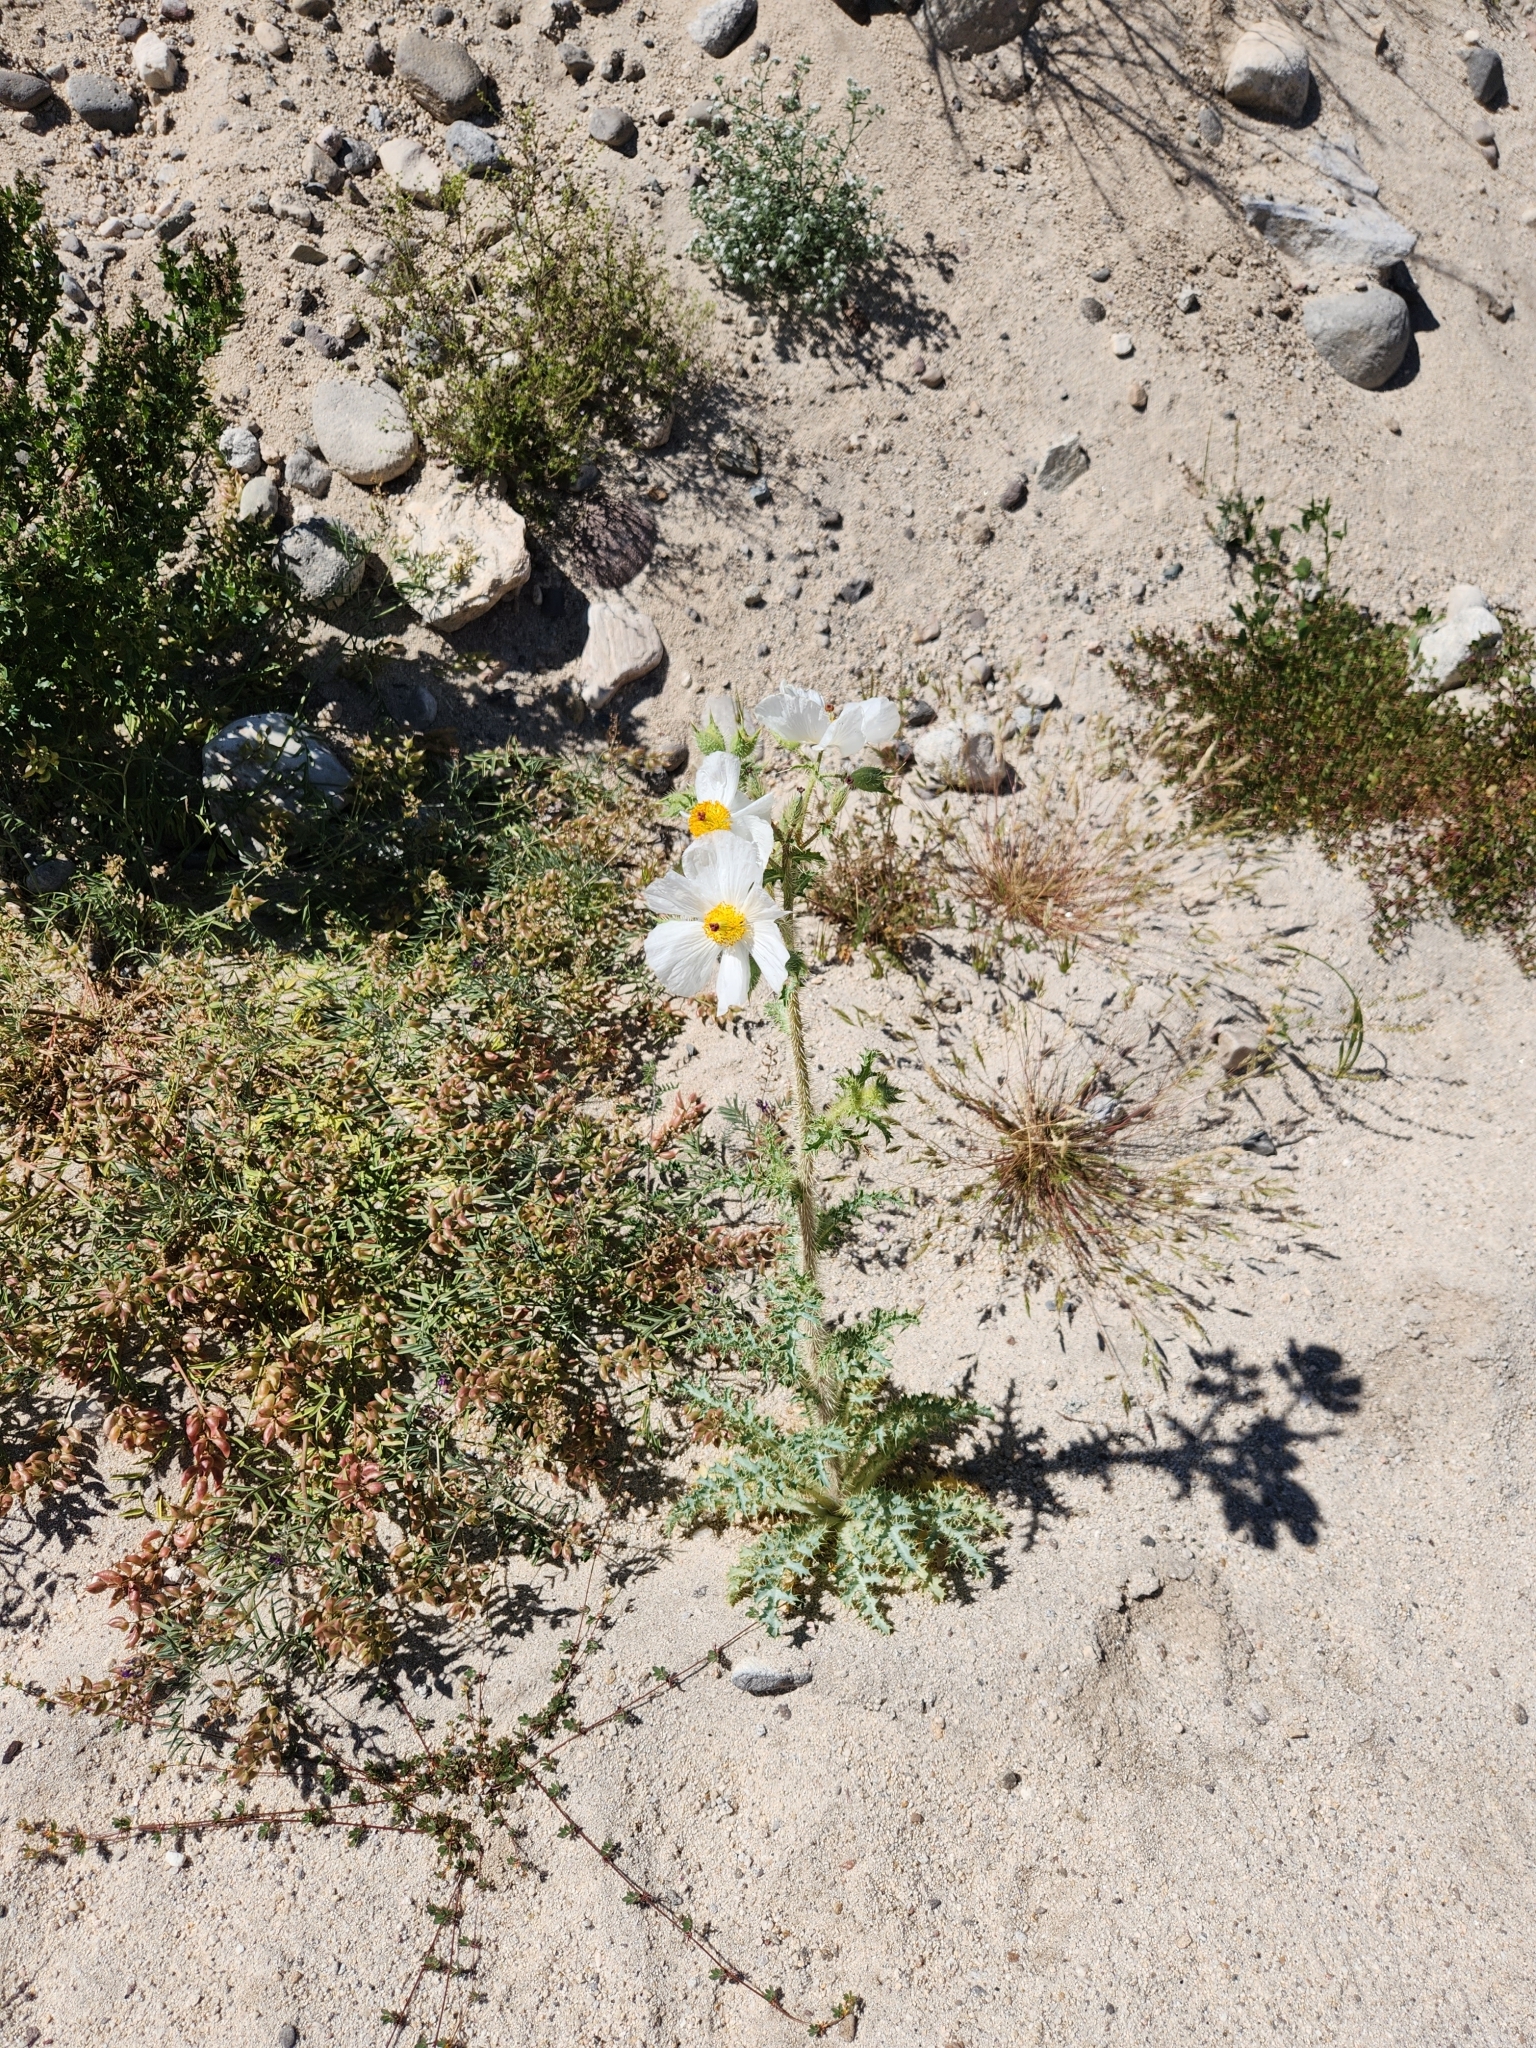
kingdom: Plantae
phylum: Tracheophyta
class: Magnoliopsida
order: Ranunculales
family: Papaveraceae
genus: Argemone
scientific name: Argemone munita
